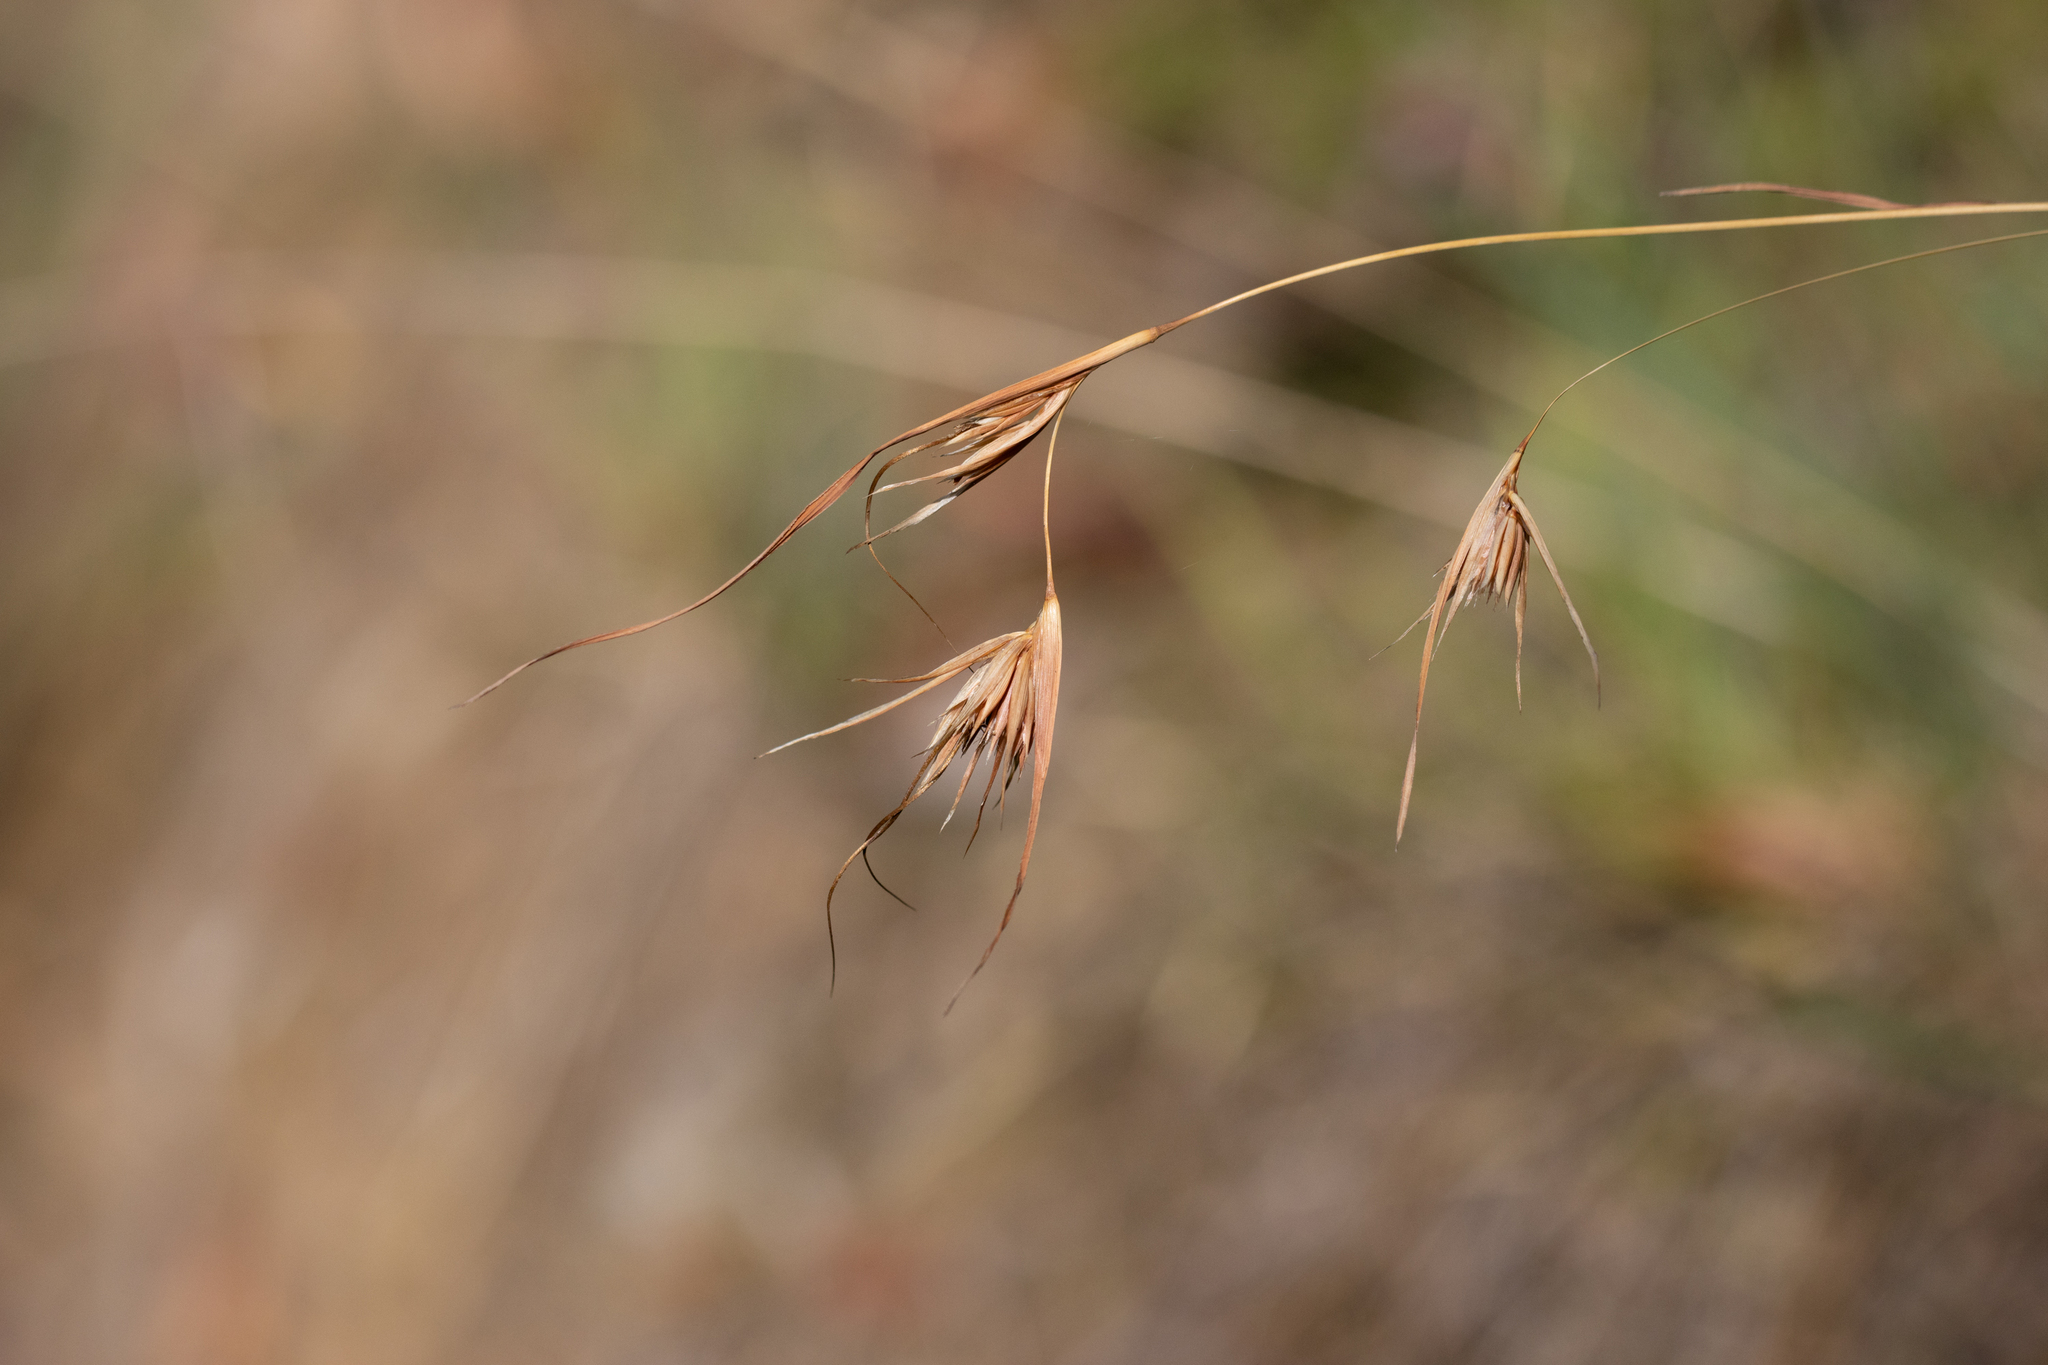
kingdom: Plantae
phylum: Tracheophyta
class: Liliopsida
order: Poales
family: Poaceae
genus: Themeda
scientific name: Themeda triandra
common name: Kangaroo grass
